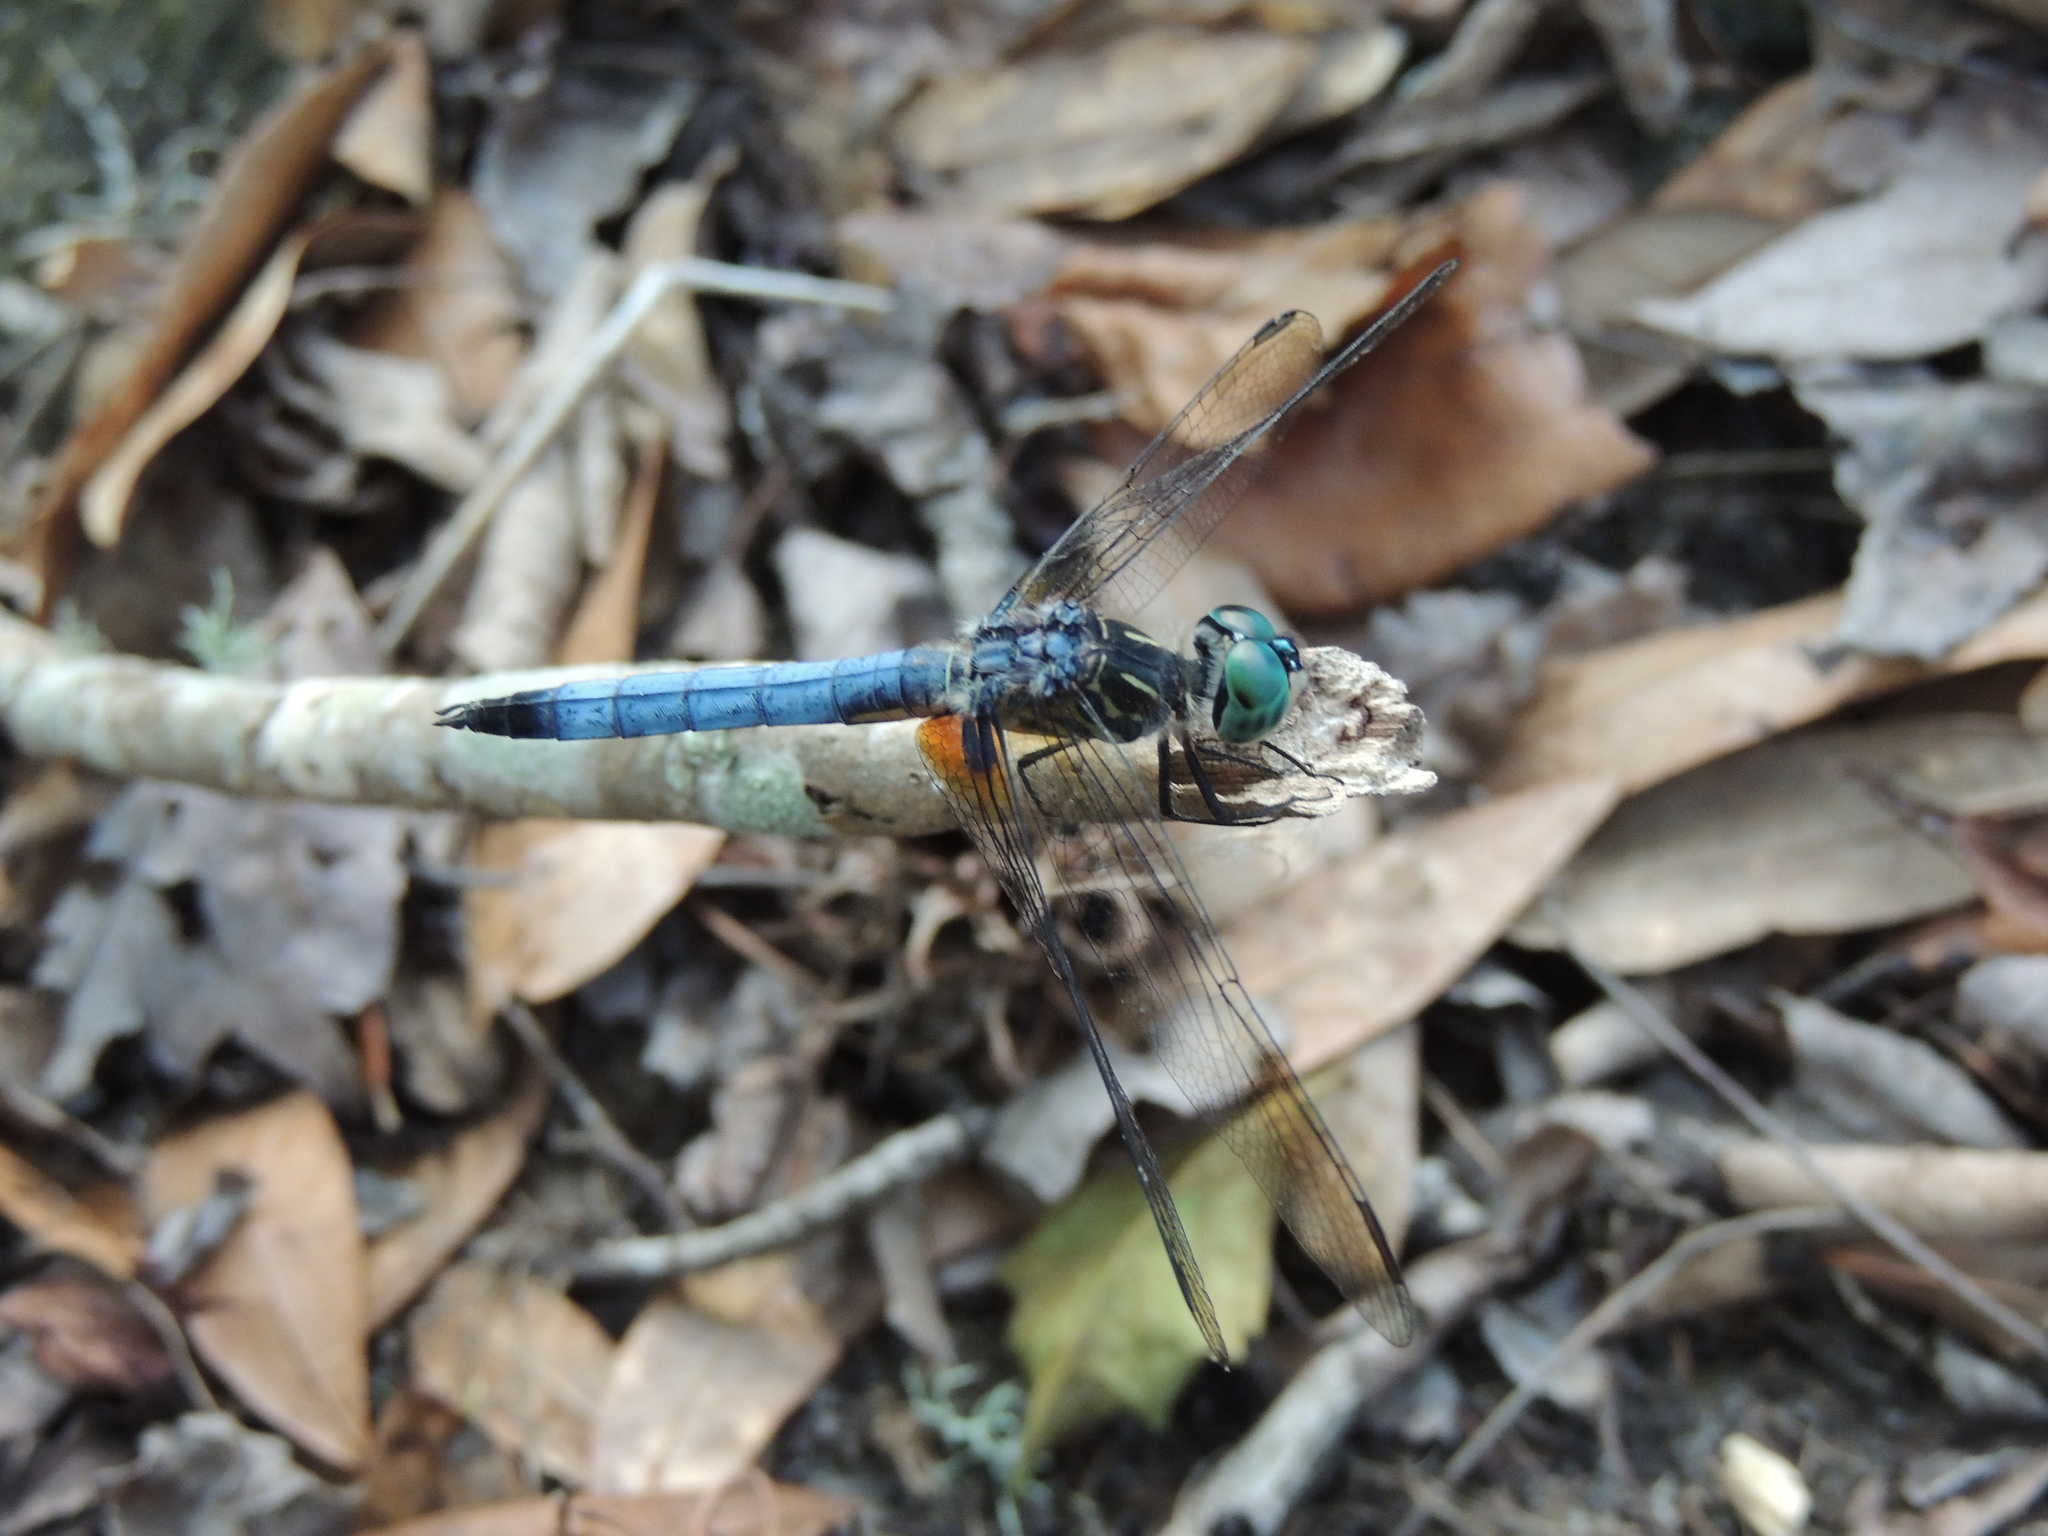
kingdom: Animalia
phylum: Arthropoda
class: Insecta
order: Odonata
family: Libellulidae
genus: Pachydiplax
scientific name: Pachydiplax longipennis
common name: Blue dasher
